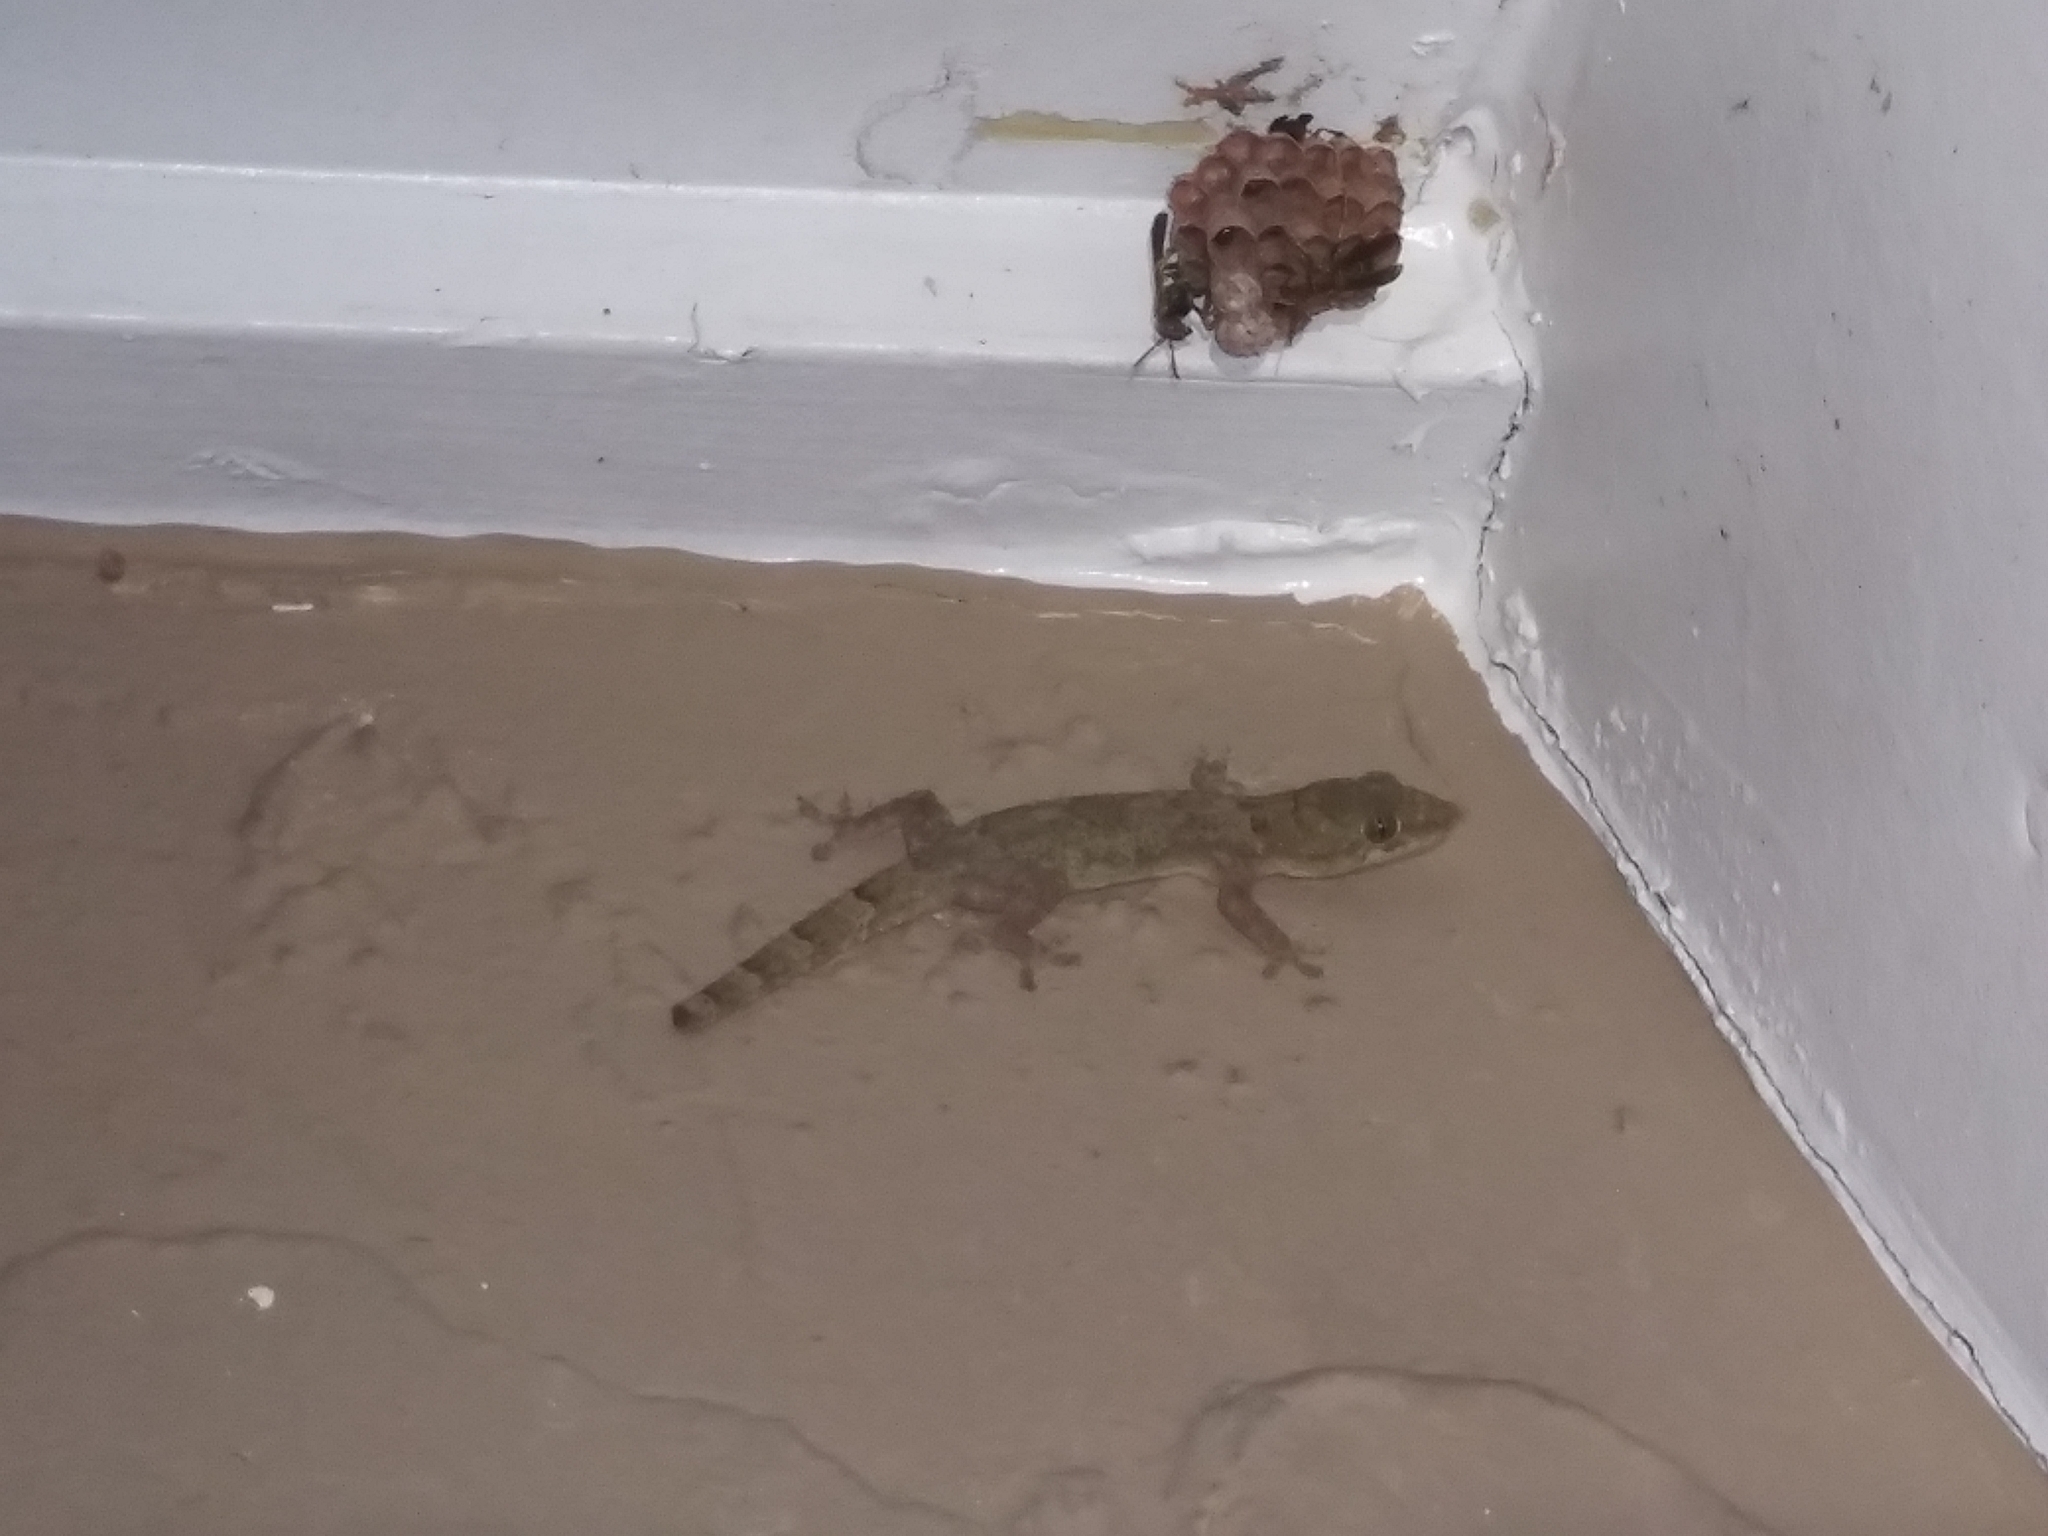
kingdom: Animalia
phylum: Chordata
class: Squamata
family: Gekkonidae
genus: Hemidactylus
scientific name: Hemidactylus mabouia
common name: House gecko
